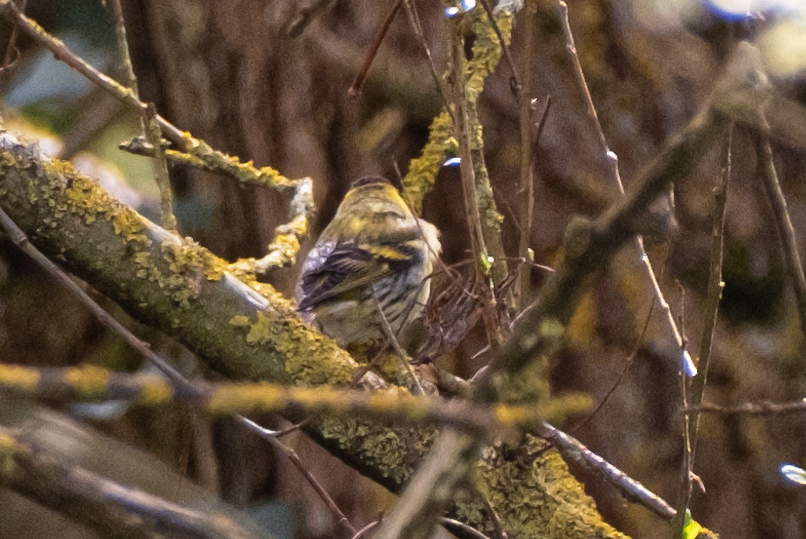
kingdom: Animalia
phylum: Chordata
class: Aves
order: Passeriformes
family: Fringillidae
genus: Spinus
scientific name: Spinus spinus
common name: Eurasian siskin
